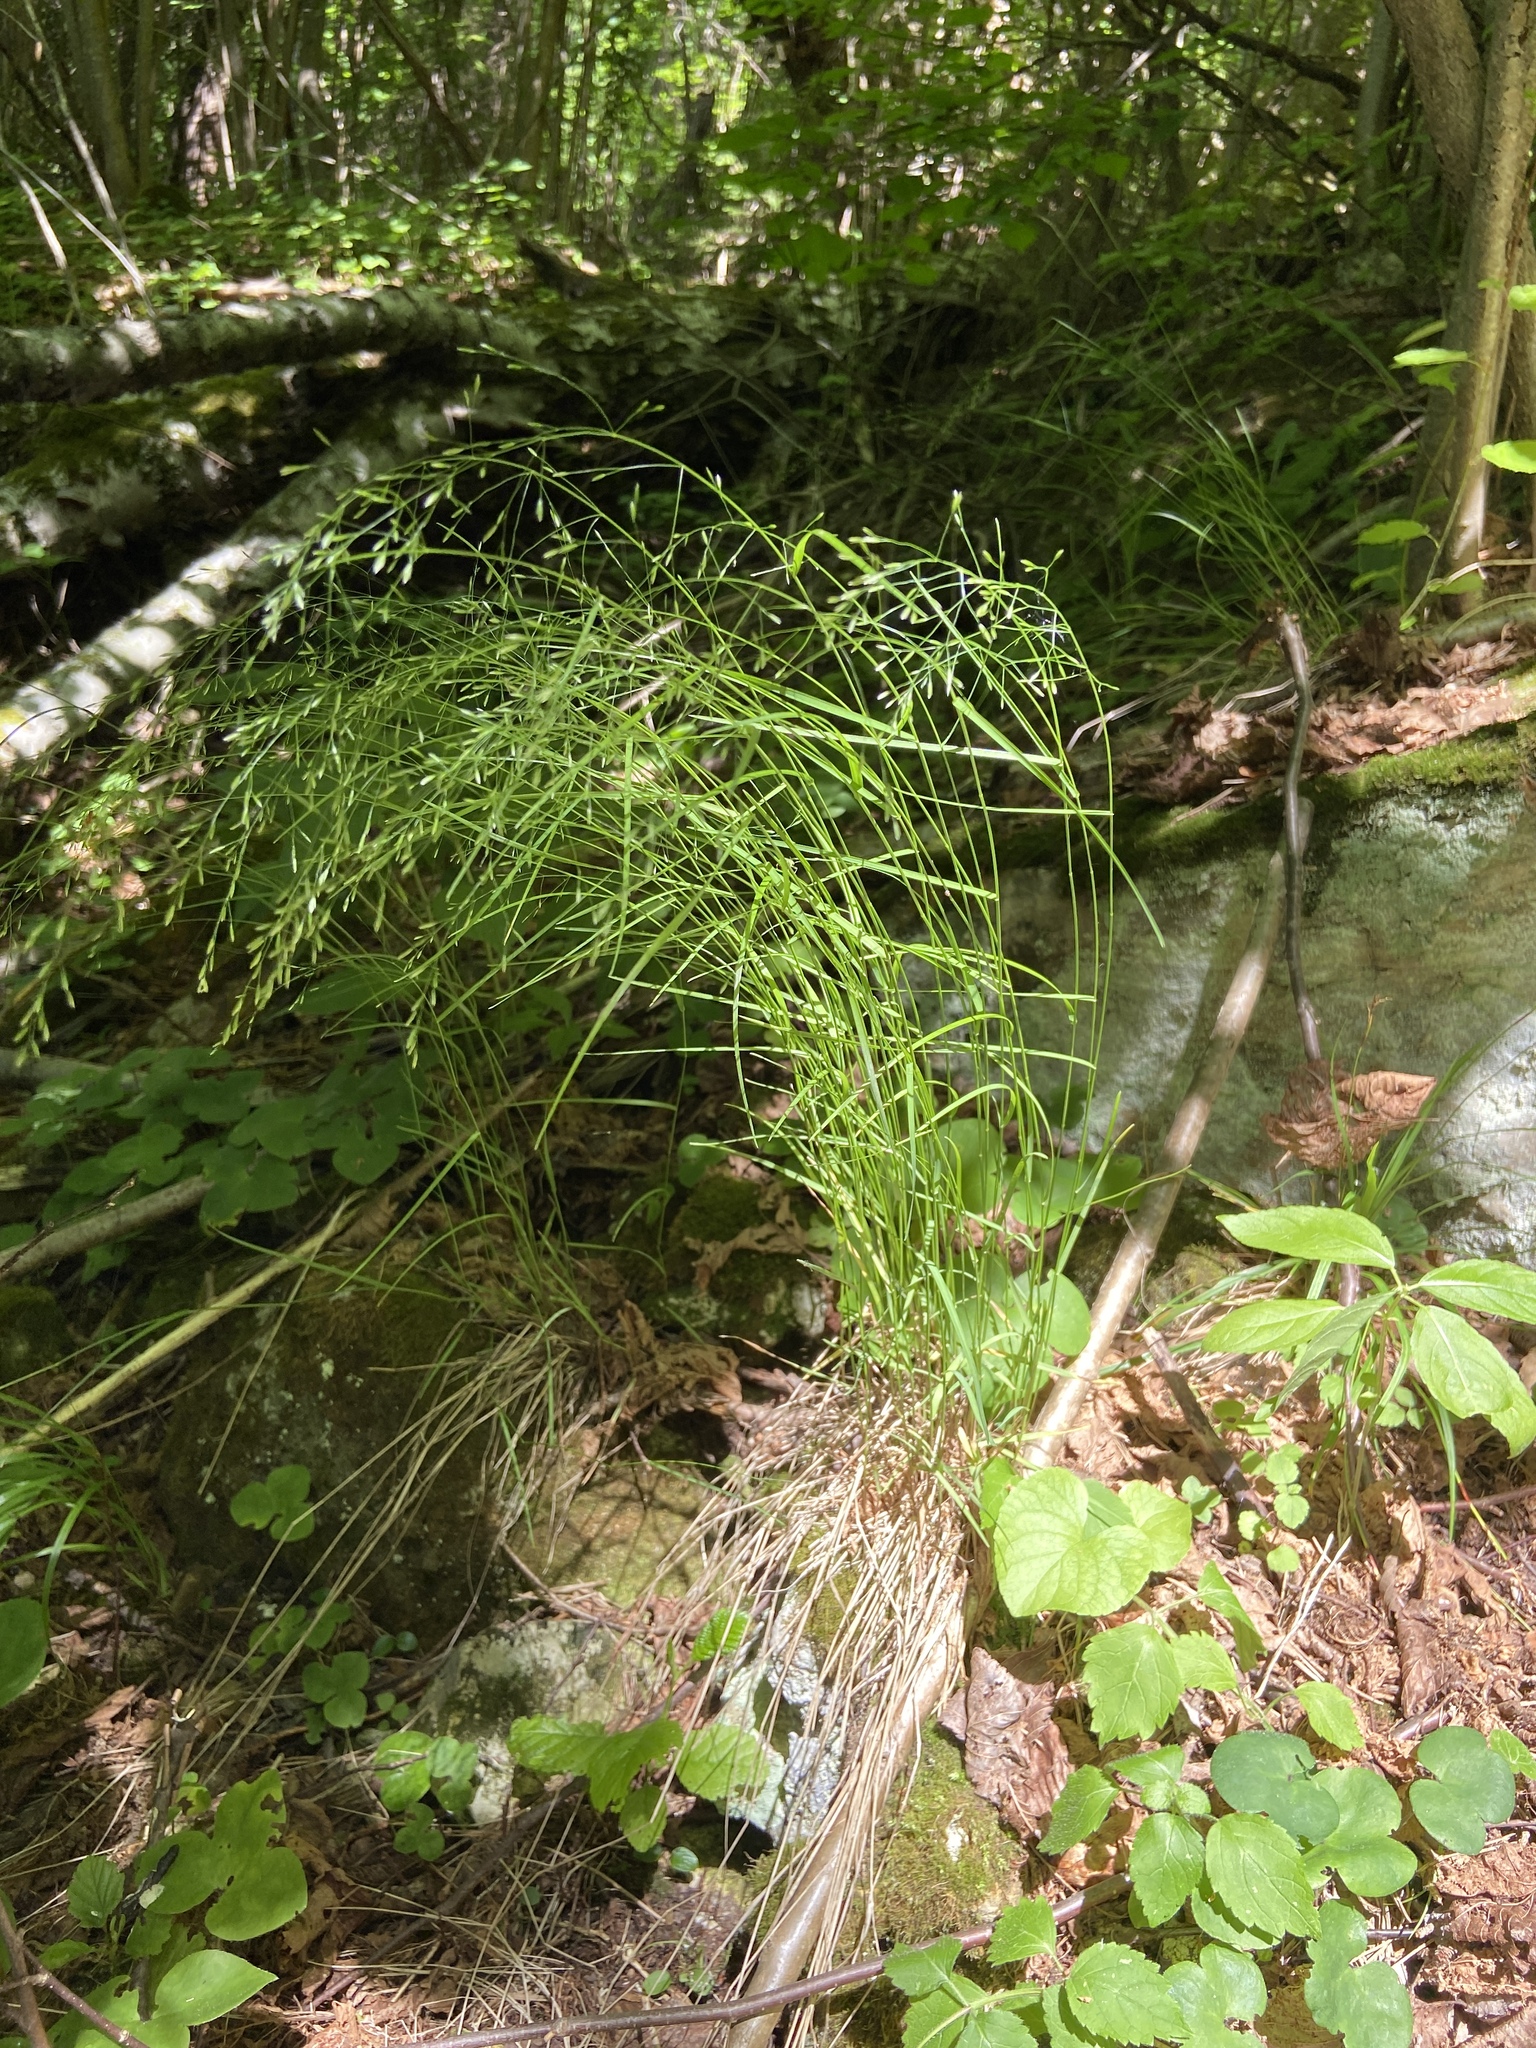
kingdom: Plantae
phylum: Tracheophyta
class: Liliopsida
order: Poales
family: Poaceae
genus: Poa
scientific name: Poa palustris
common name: Swamp meadow-grass
